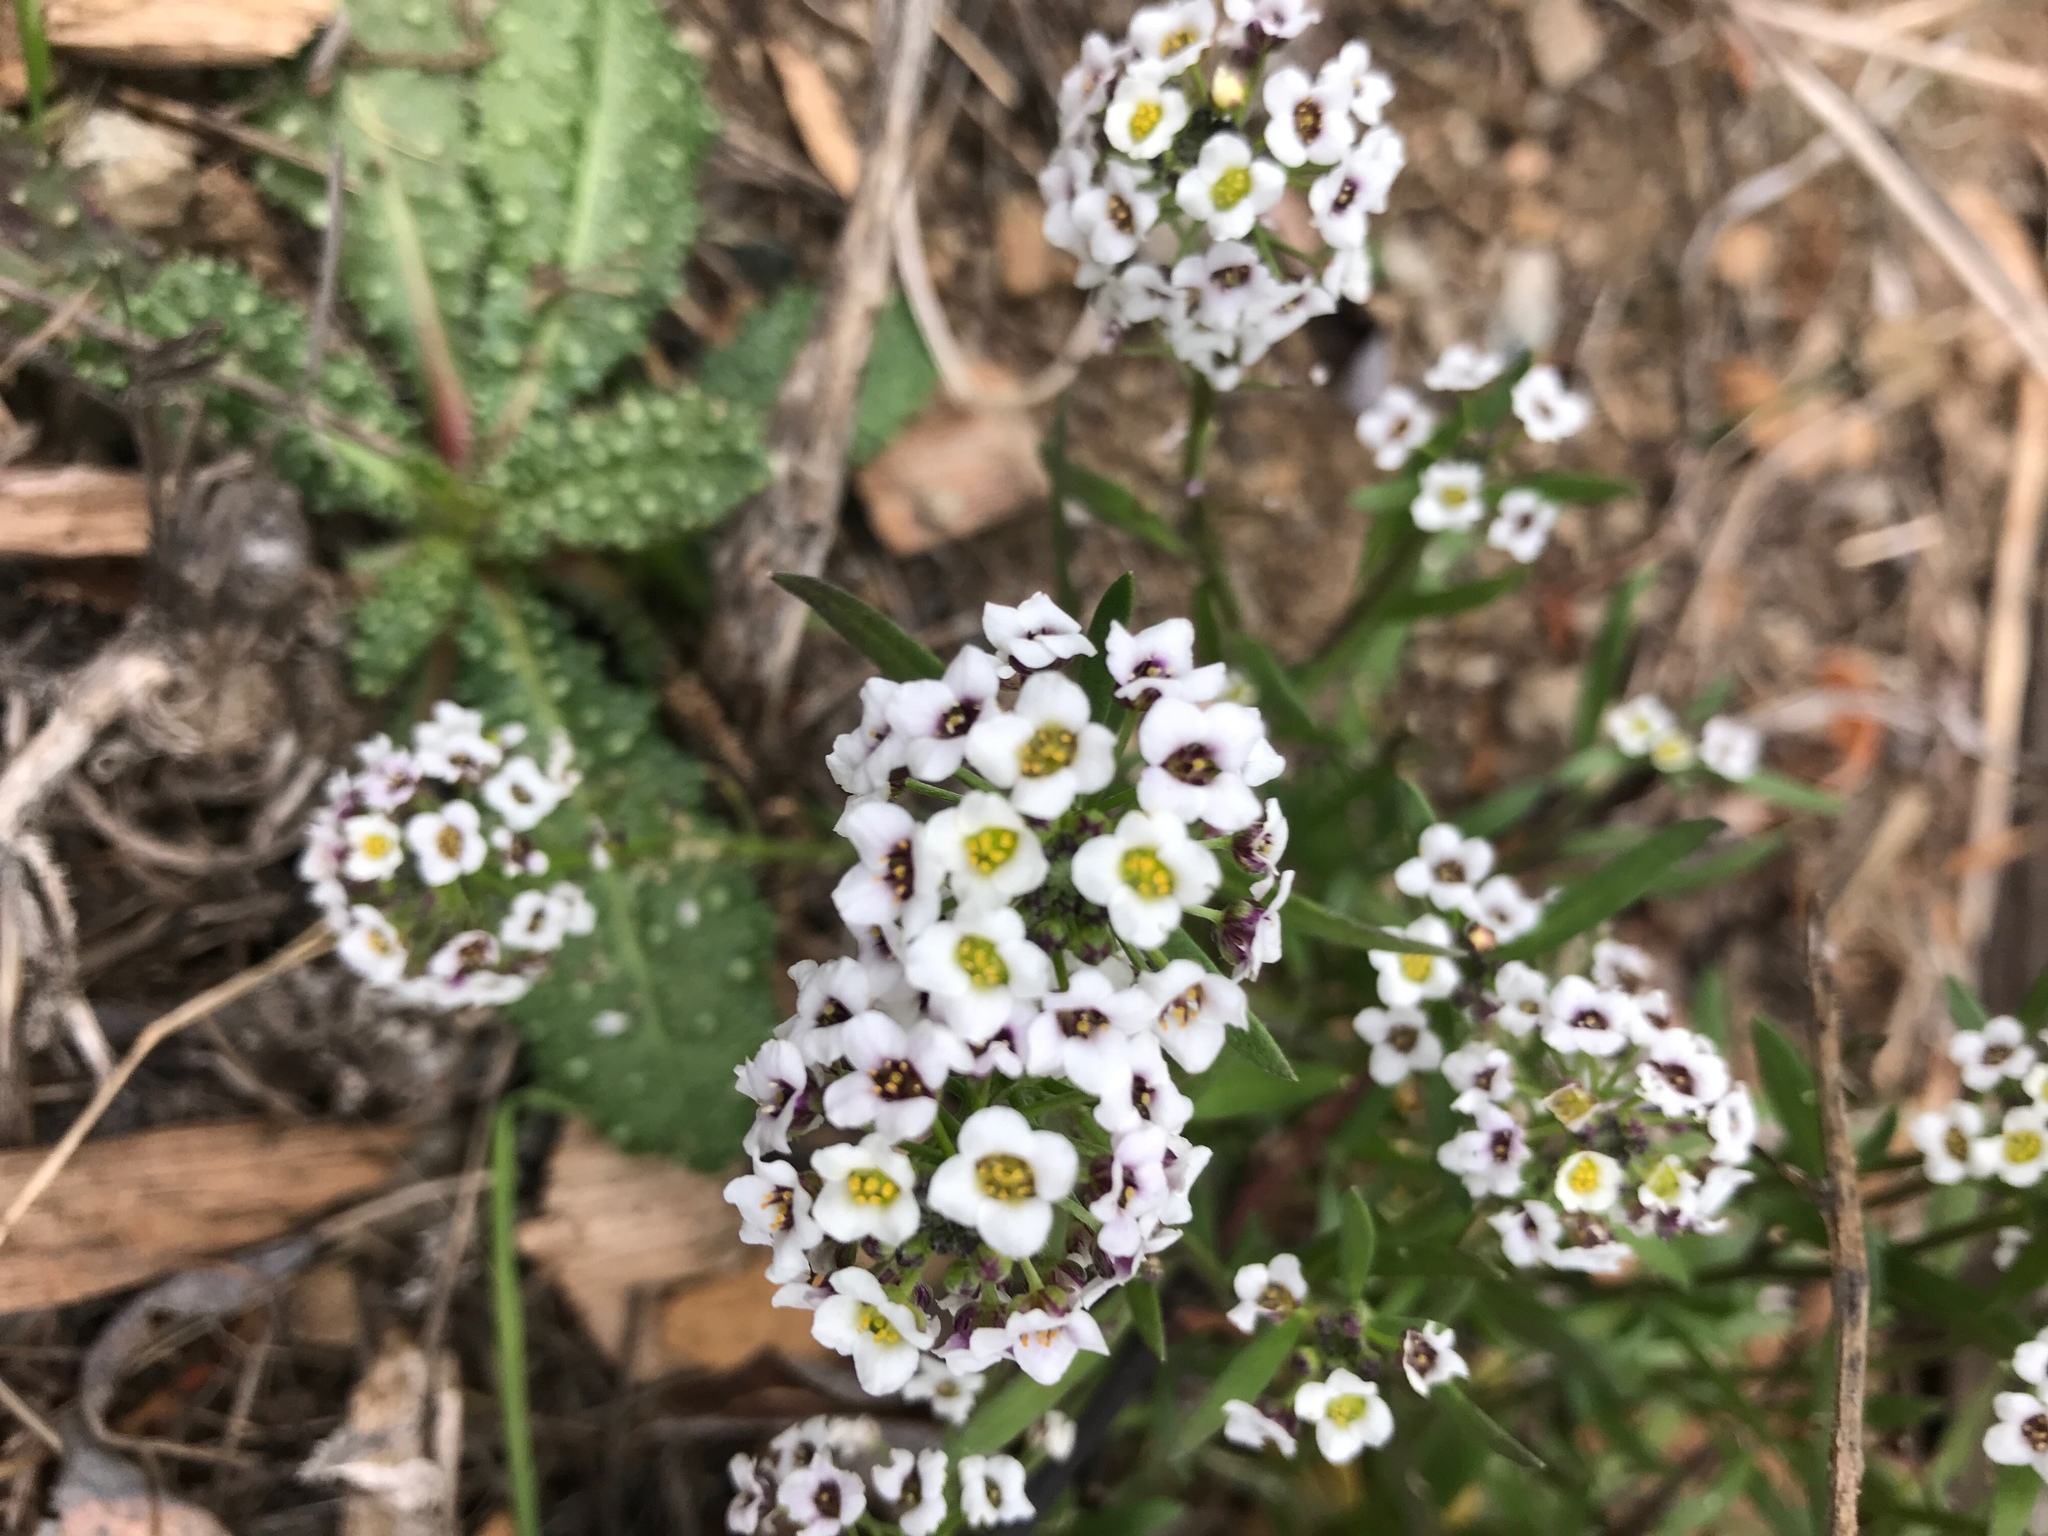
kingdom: Plantae
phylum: Tracheophyta
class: Magnoliopsida
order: Brassicales
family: Brassicaceae
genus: Lobularia
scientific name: Lobularia maritima
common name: Sweet alison
